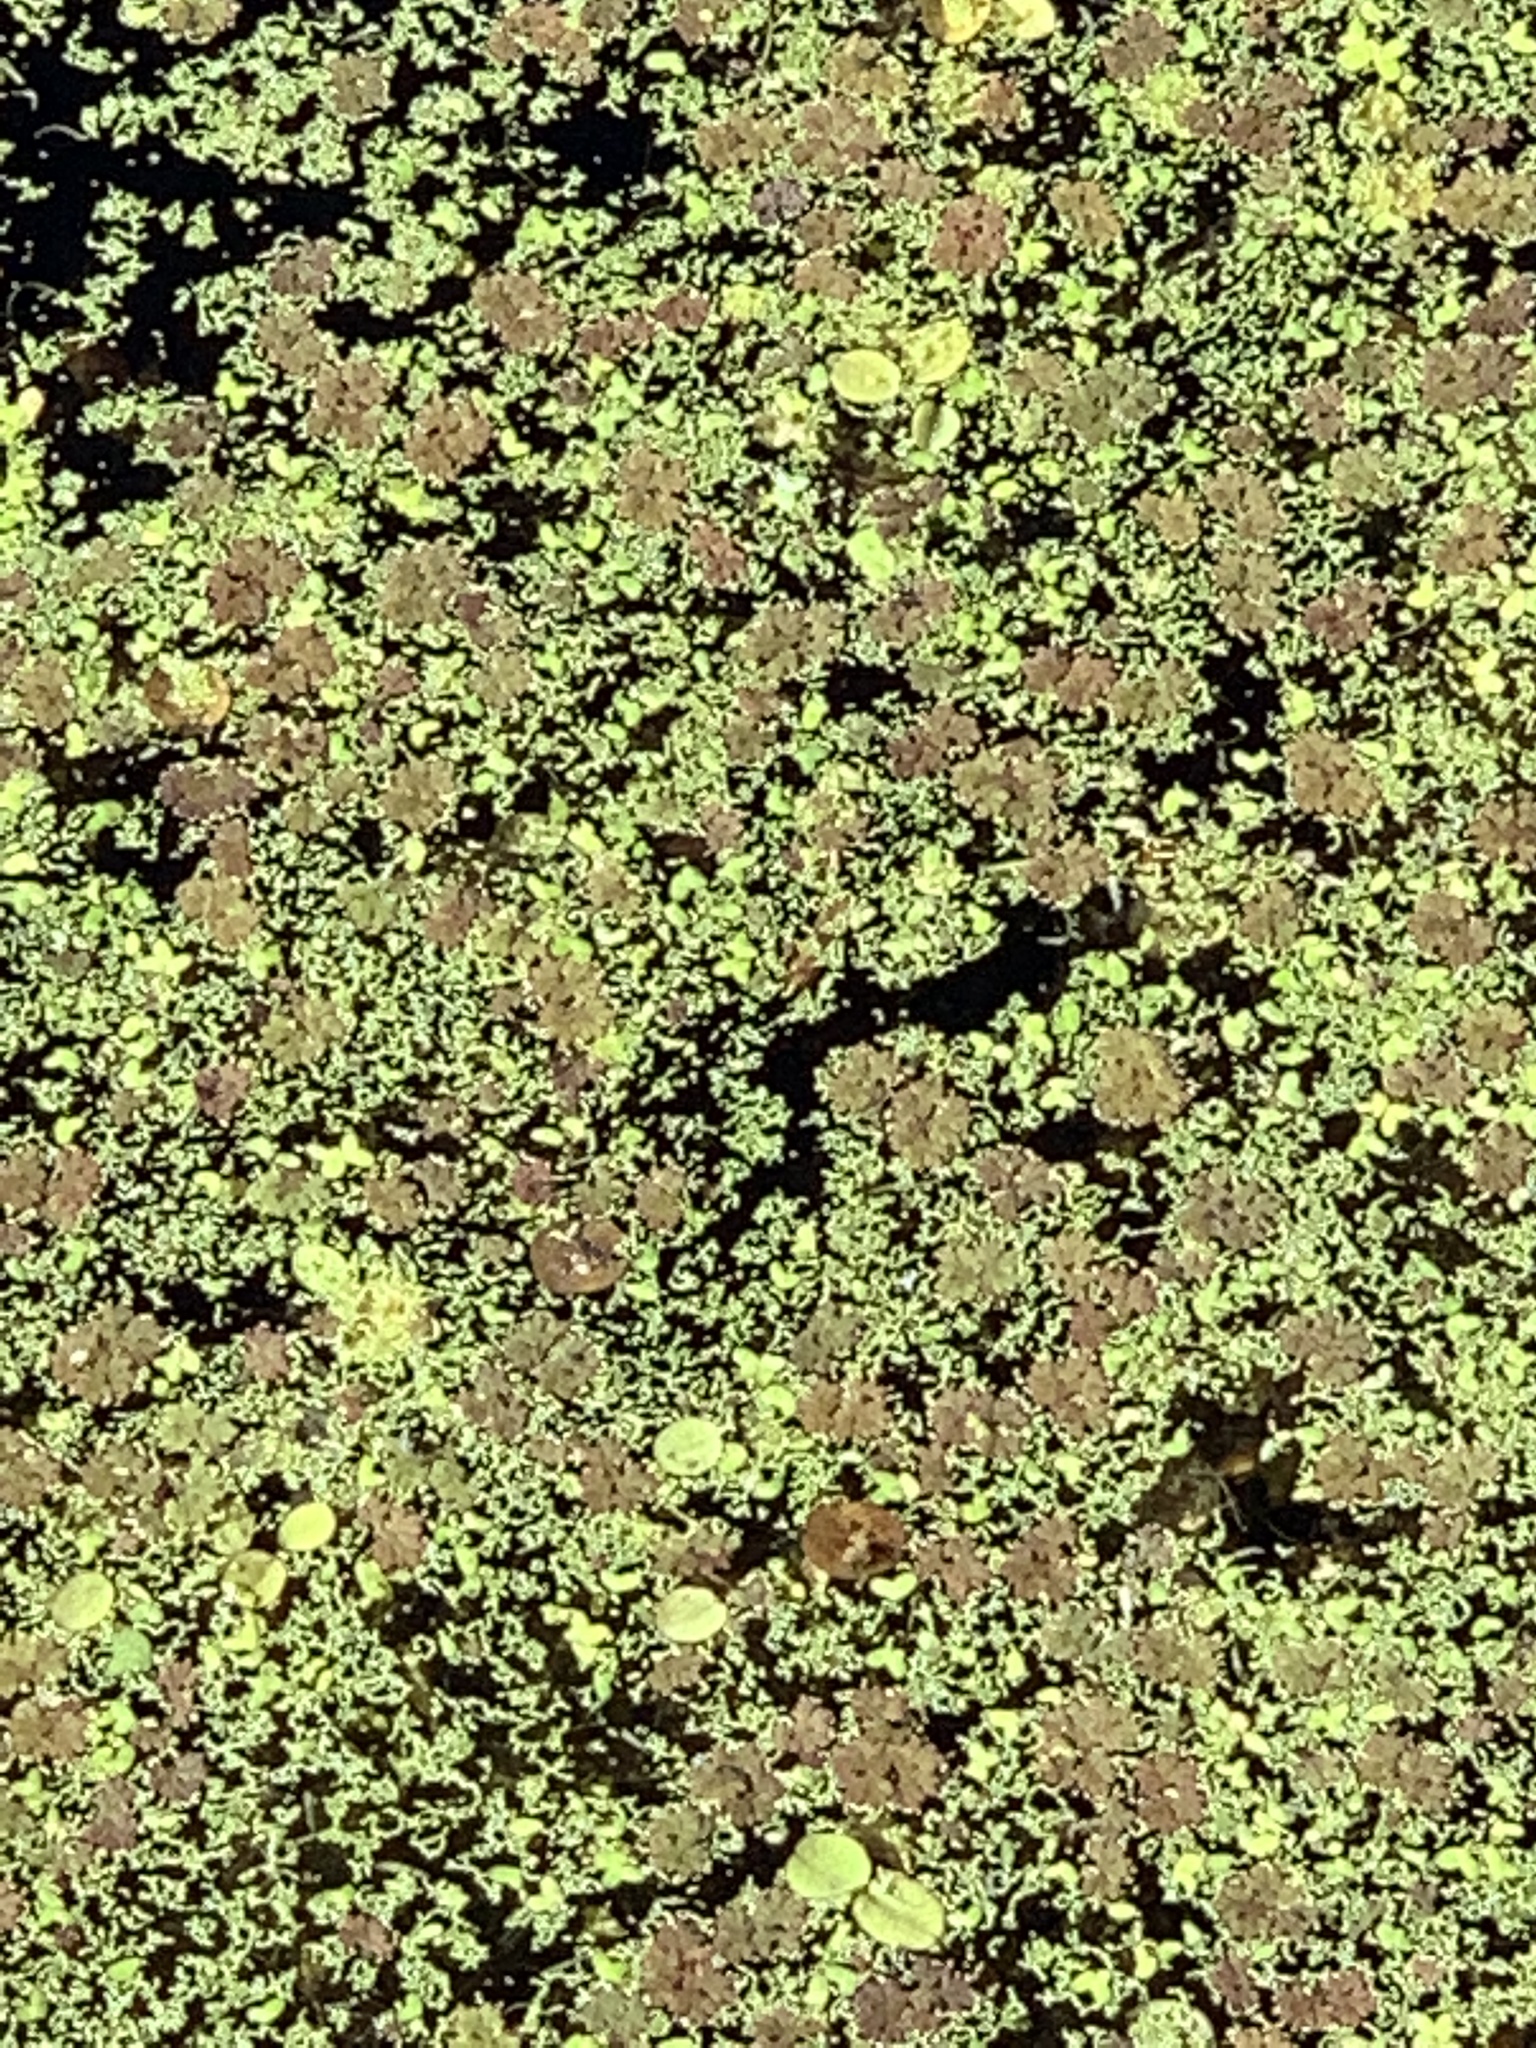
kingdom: Plantae
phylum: Tracheophyta
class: Polypodiopsida
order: Salviniales
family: Salviniaceae
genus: Azolla
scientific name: Azolla caroliniana
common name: Carolina mosquitofern
